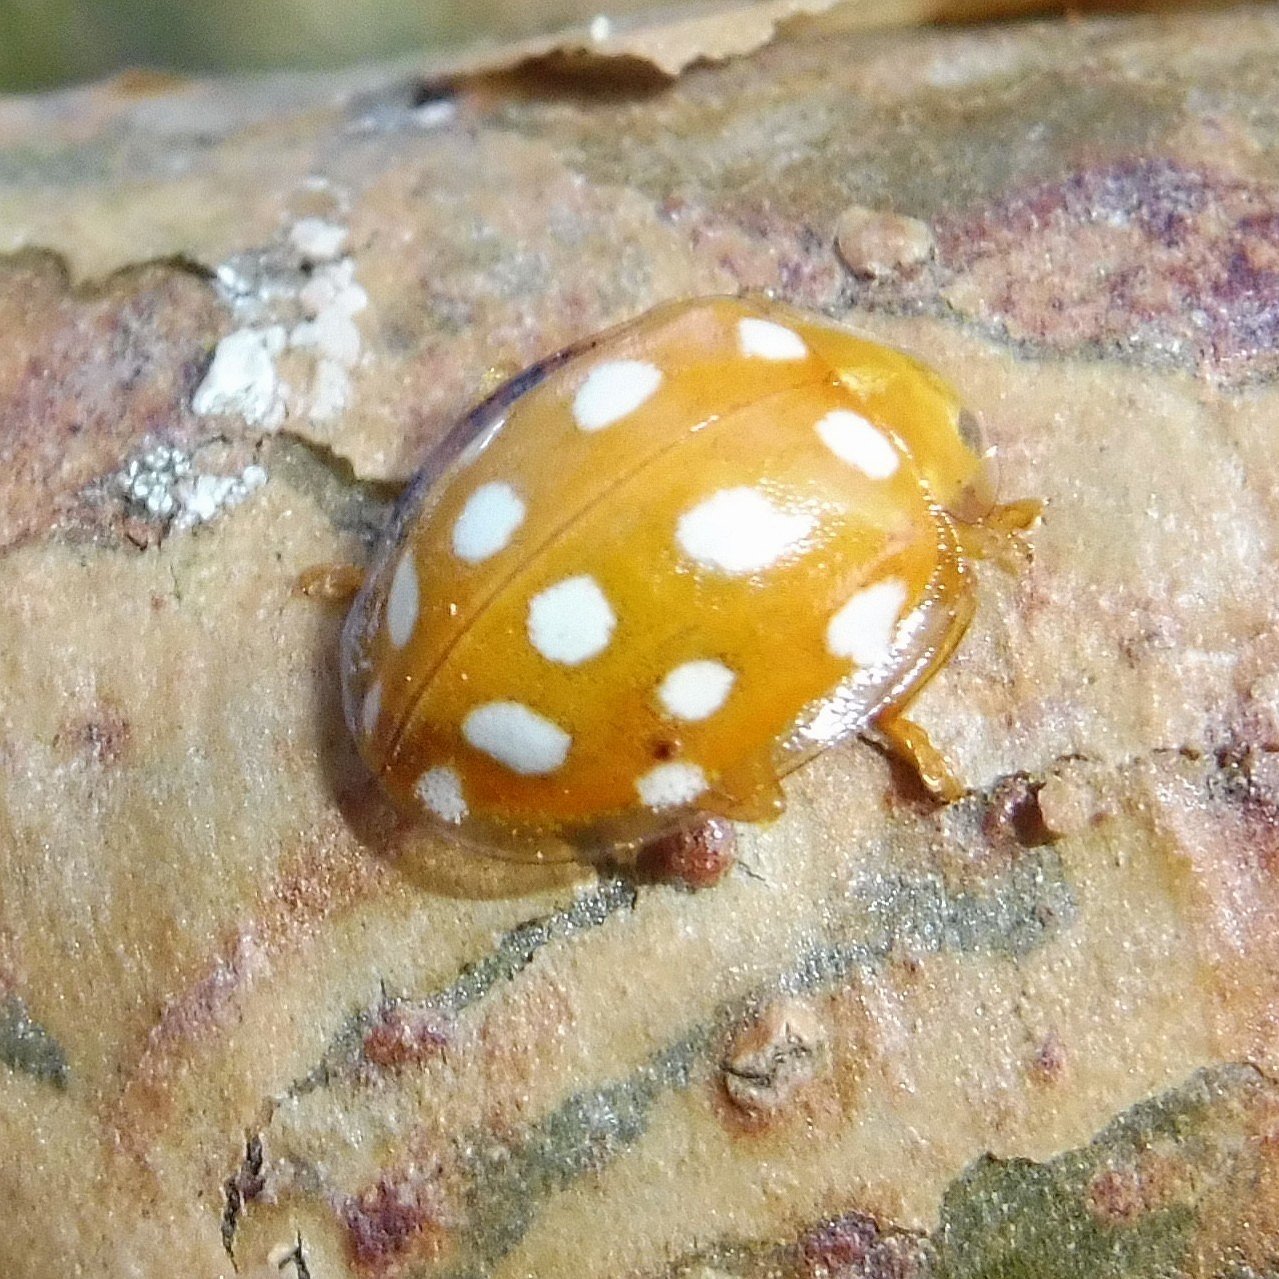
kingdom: Animalia
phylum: Arthropoda
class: Insecta
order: Coleoptera
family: Coccinellidae
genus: Halyzia
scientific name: Halyzia sedecimguttata
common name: Orange ladybird
